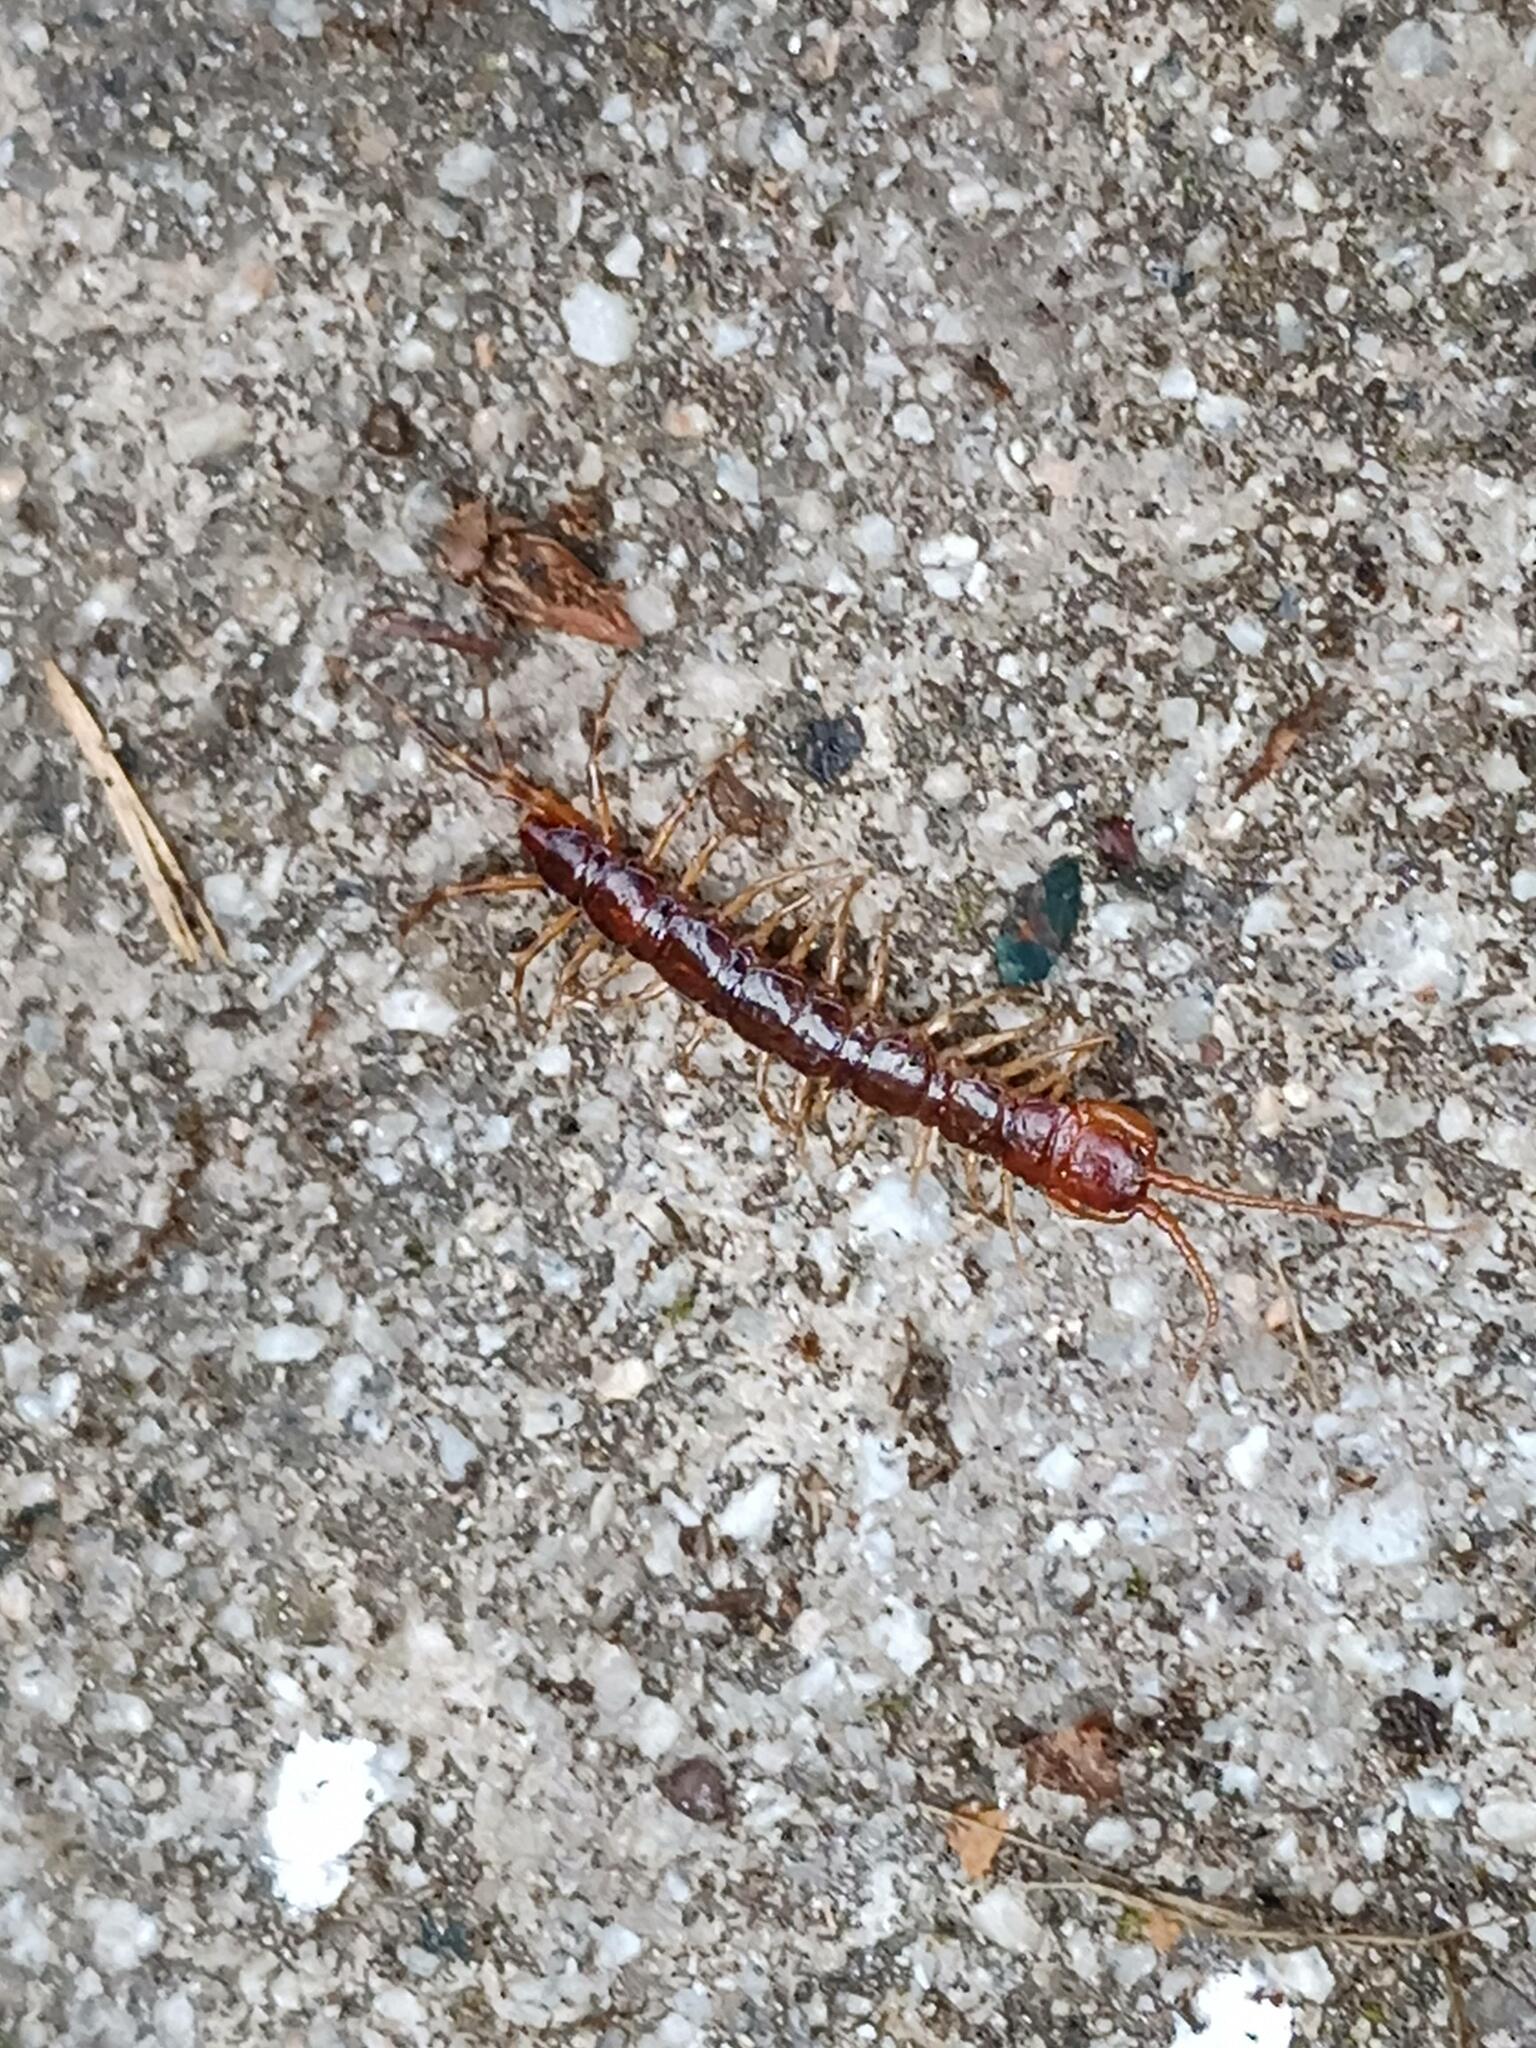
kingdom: Animalia
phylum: Arthropoda
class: Chilopoda
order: Lithobiomorpha
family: Lithobiidae
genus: Lithobius
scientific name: Lithobius variegatus
